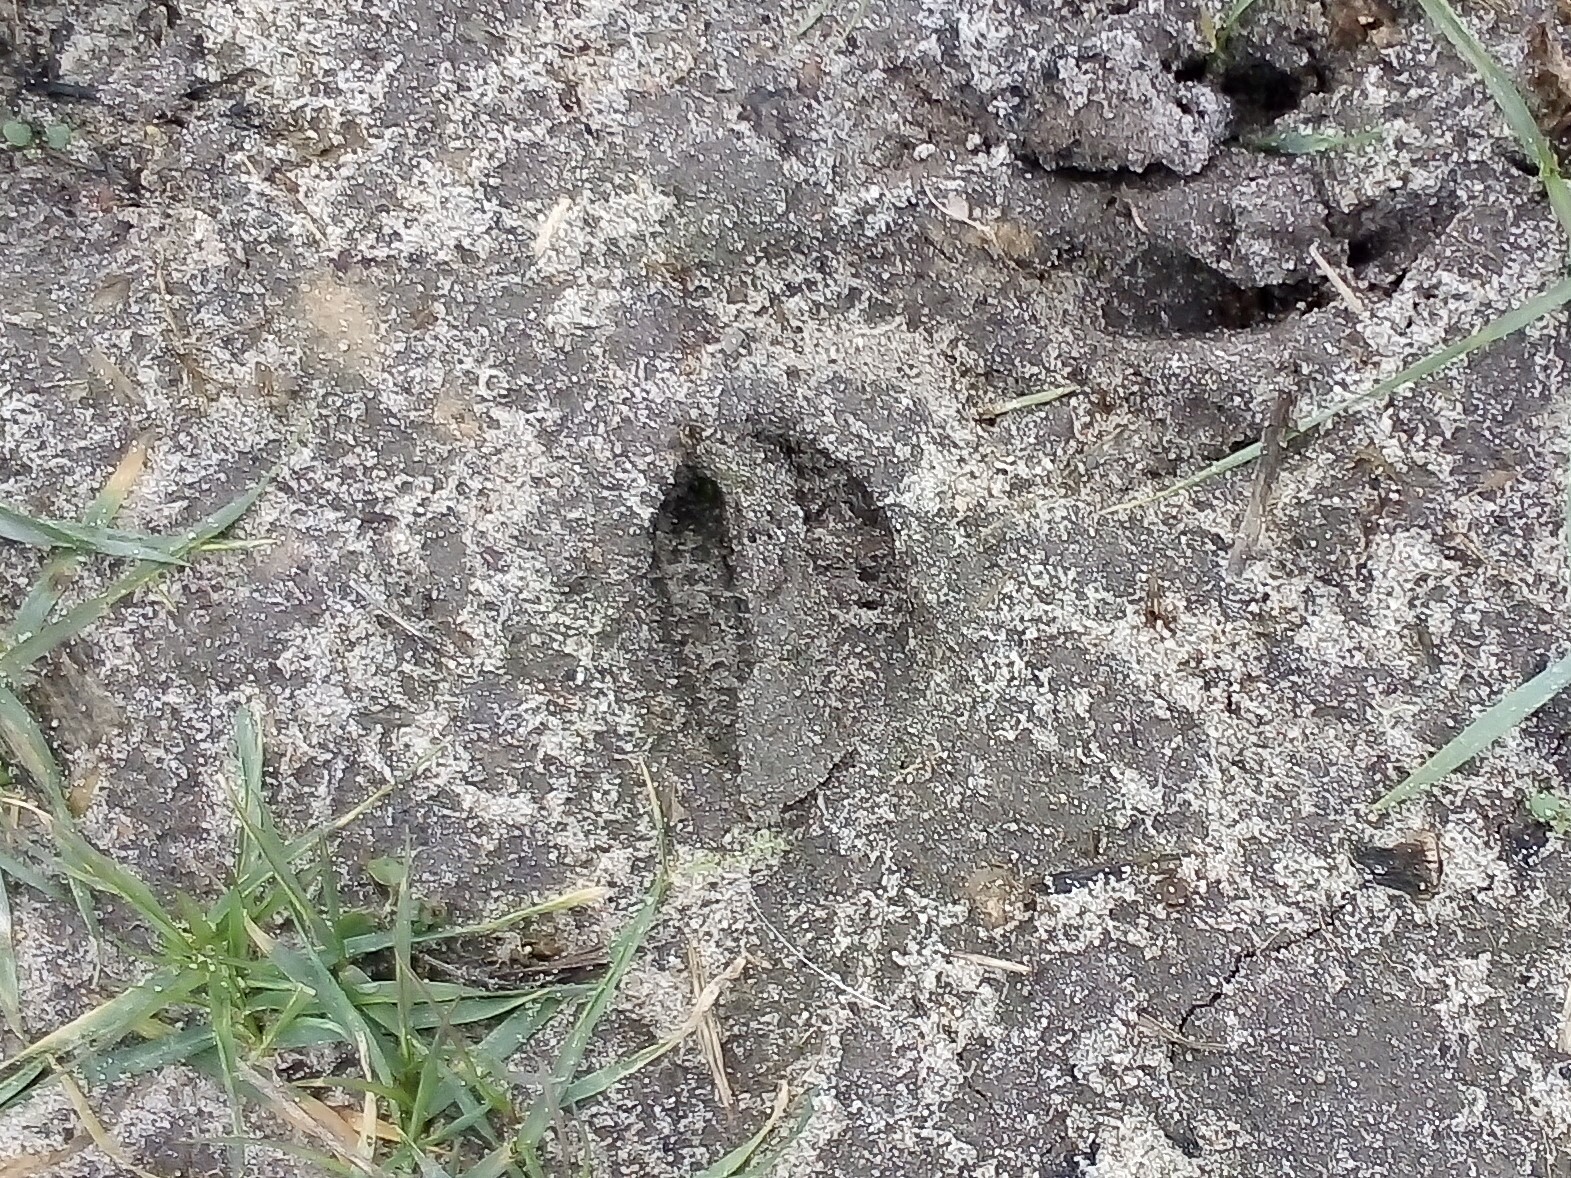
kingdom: Animalia
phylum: Chordata
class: Mammalia
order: Artiodactyla
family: Cervidae
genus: Capreolus
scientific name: Capreolus capreolus
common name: Western roe deer
